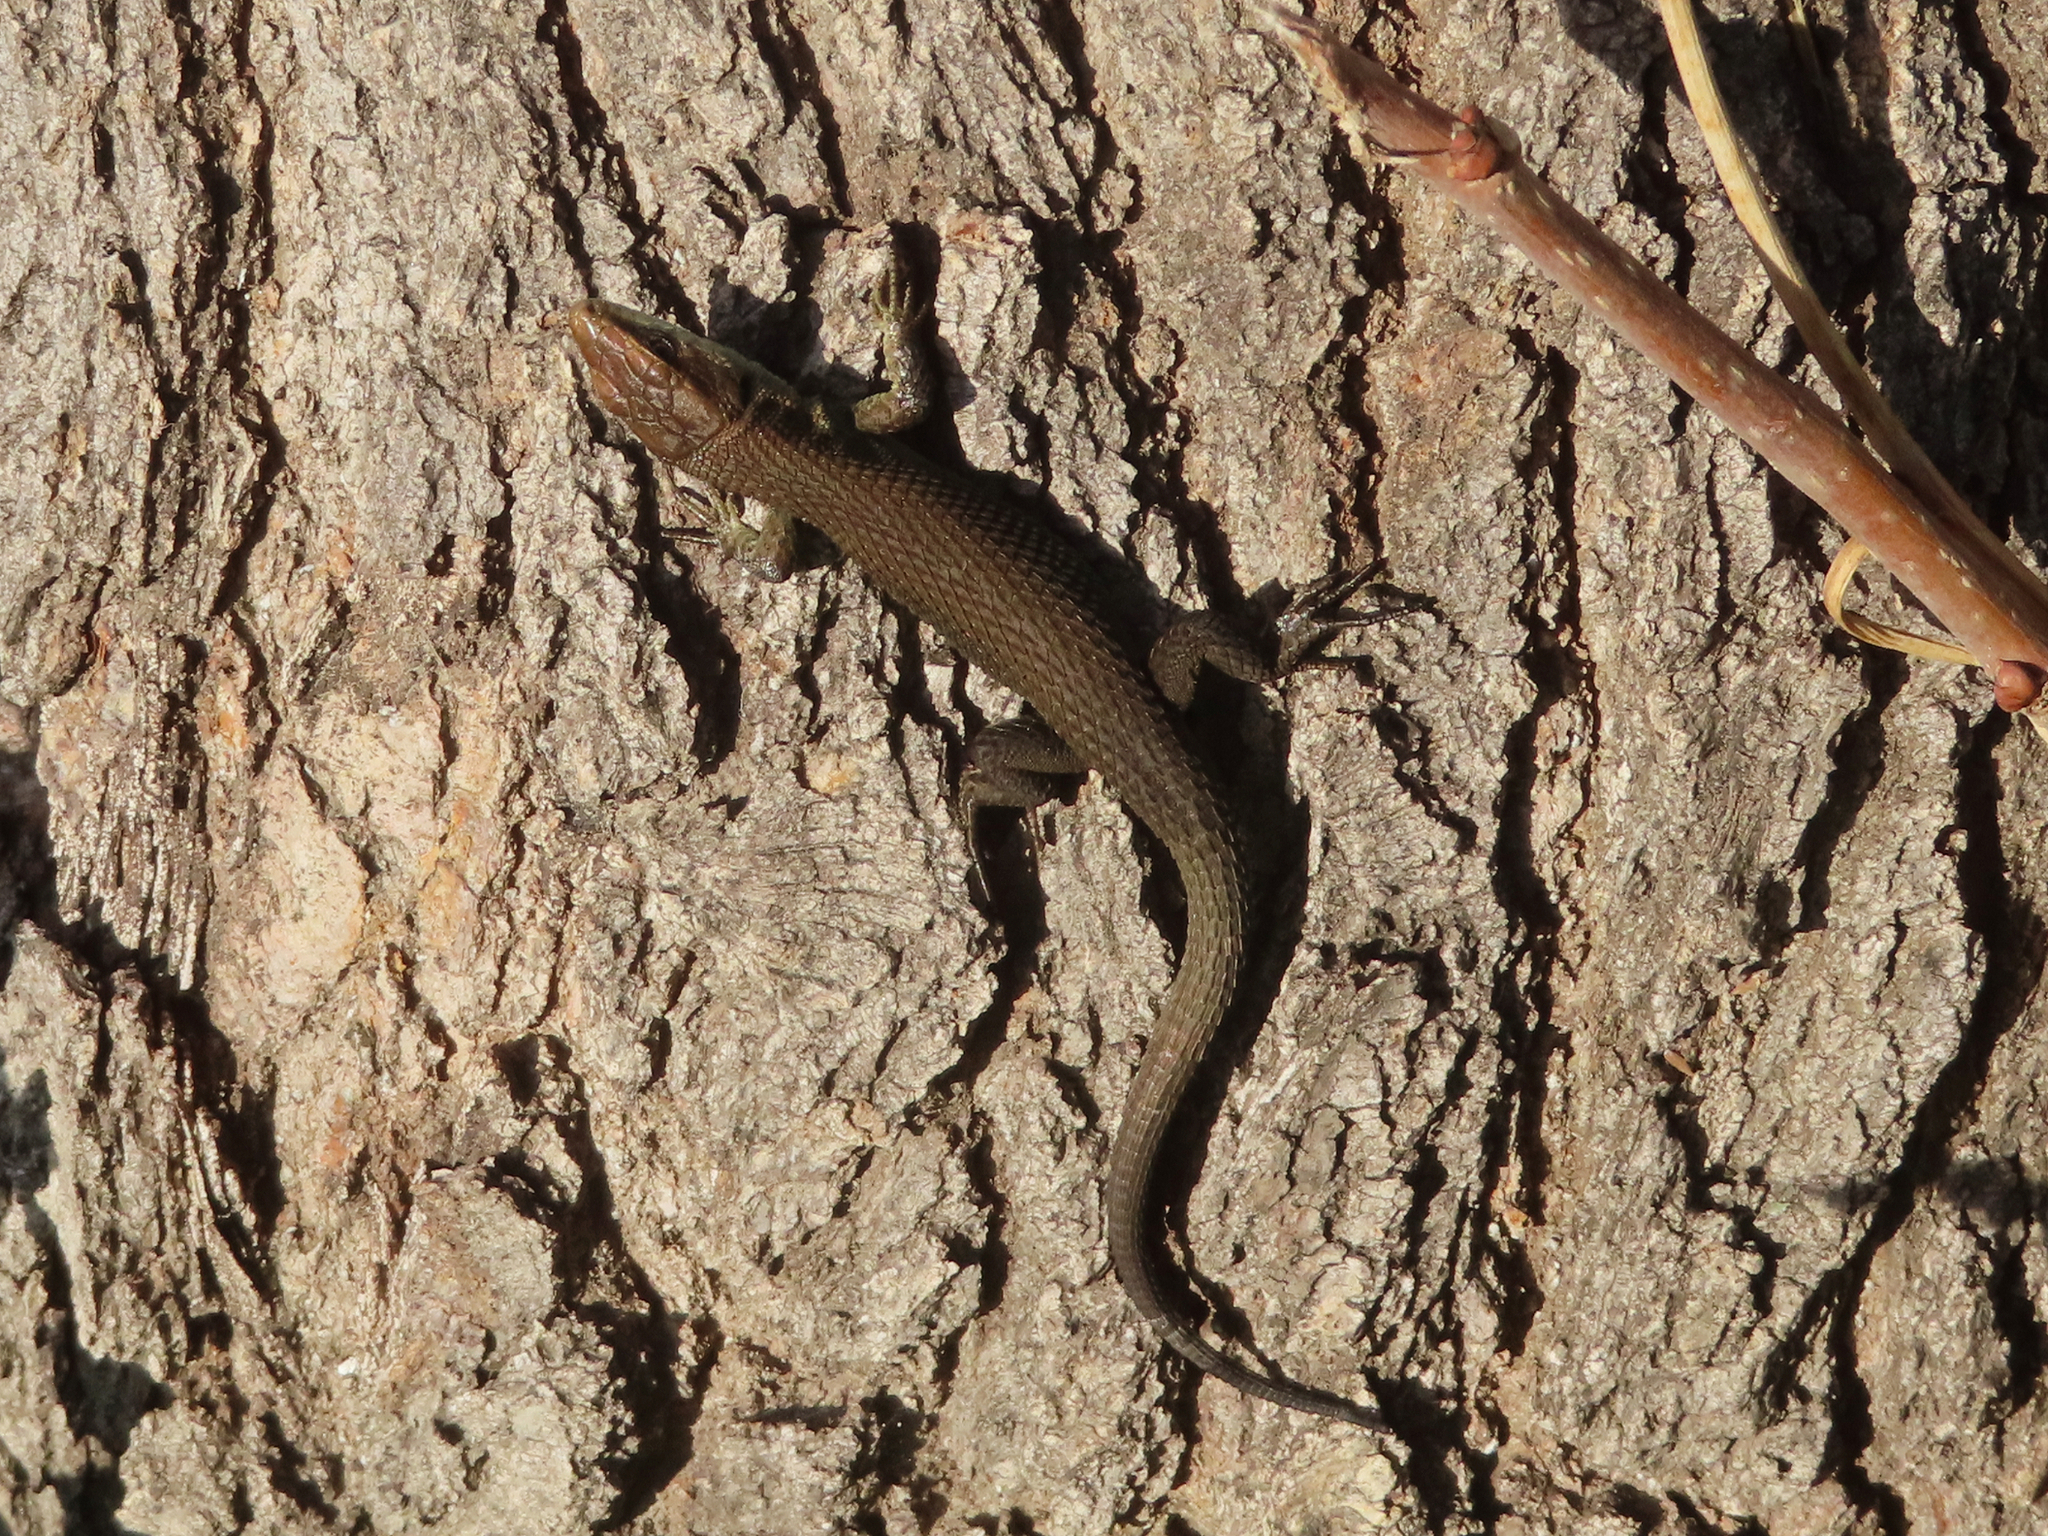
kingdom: Animalia
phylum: Chordata
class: Squamata
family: Lacertidae
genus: Algyroides
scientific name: Algyroides moreoticus
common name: Greek algyroides
